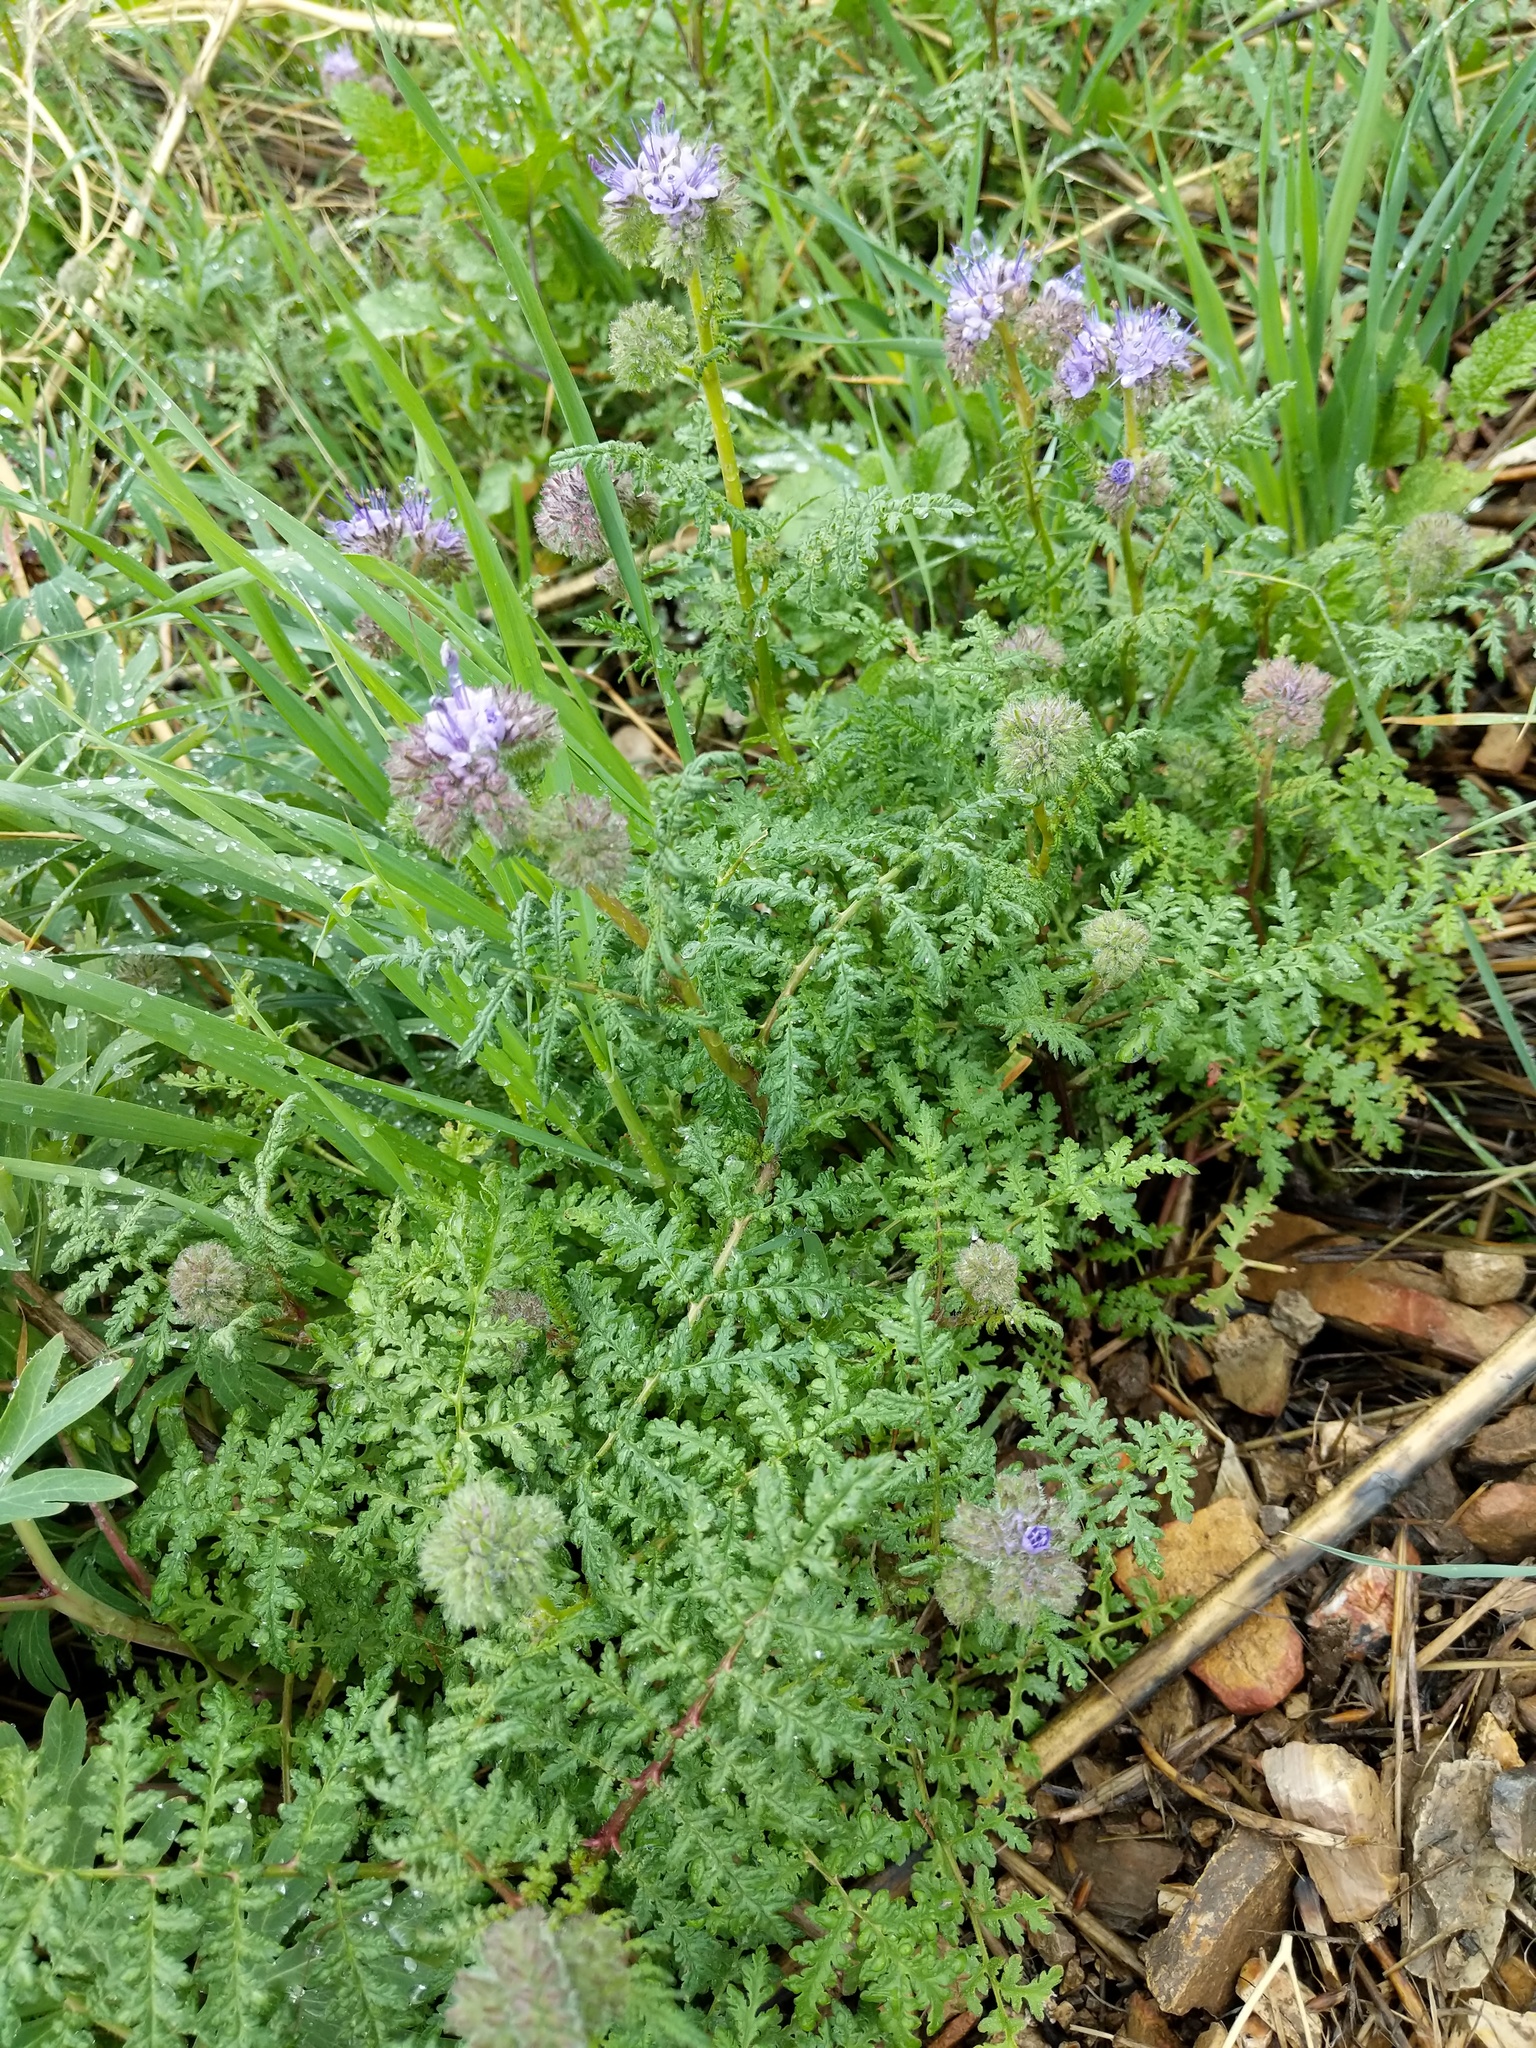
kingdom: Plantae
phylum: Tracheophyta
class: Magnoliopsida
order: Boraginales
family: Hydrophyllaceae
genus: Phacelia
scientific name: Phacelia tanacetifolia
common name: Phacelia
